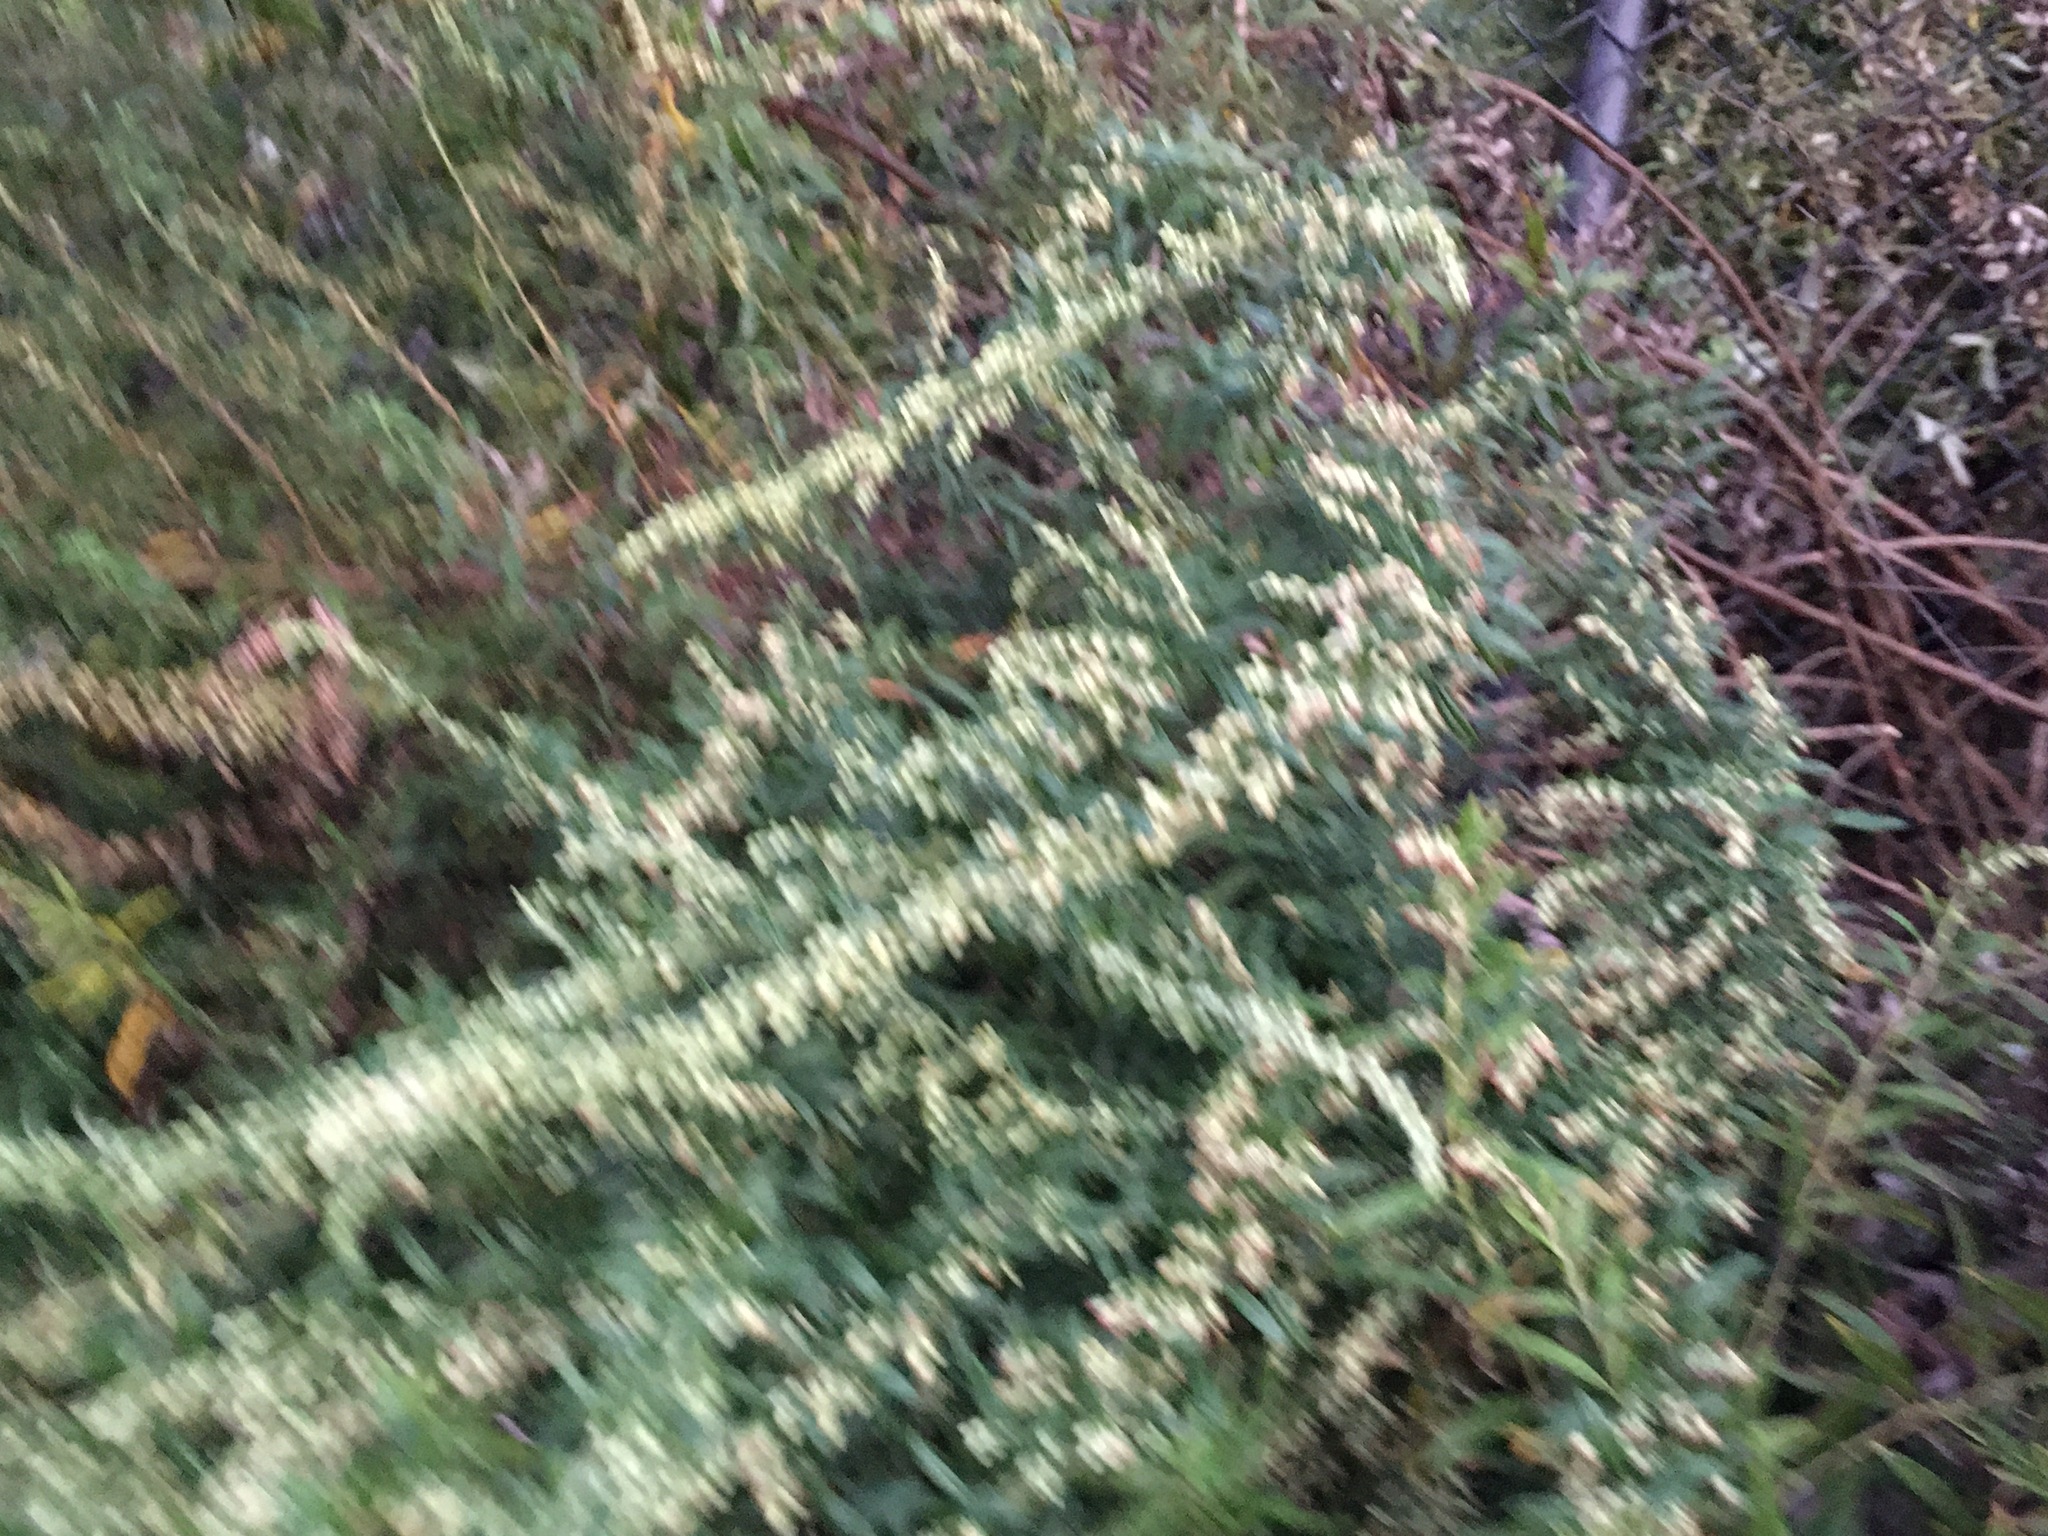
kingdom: Plantae
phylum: Tracheophyta
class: Magnoliopsida
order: Asterales
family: Asteraceae
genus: Artemisia
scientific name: Artemisia vulgaris
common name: Mugwort
